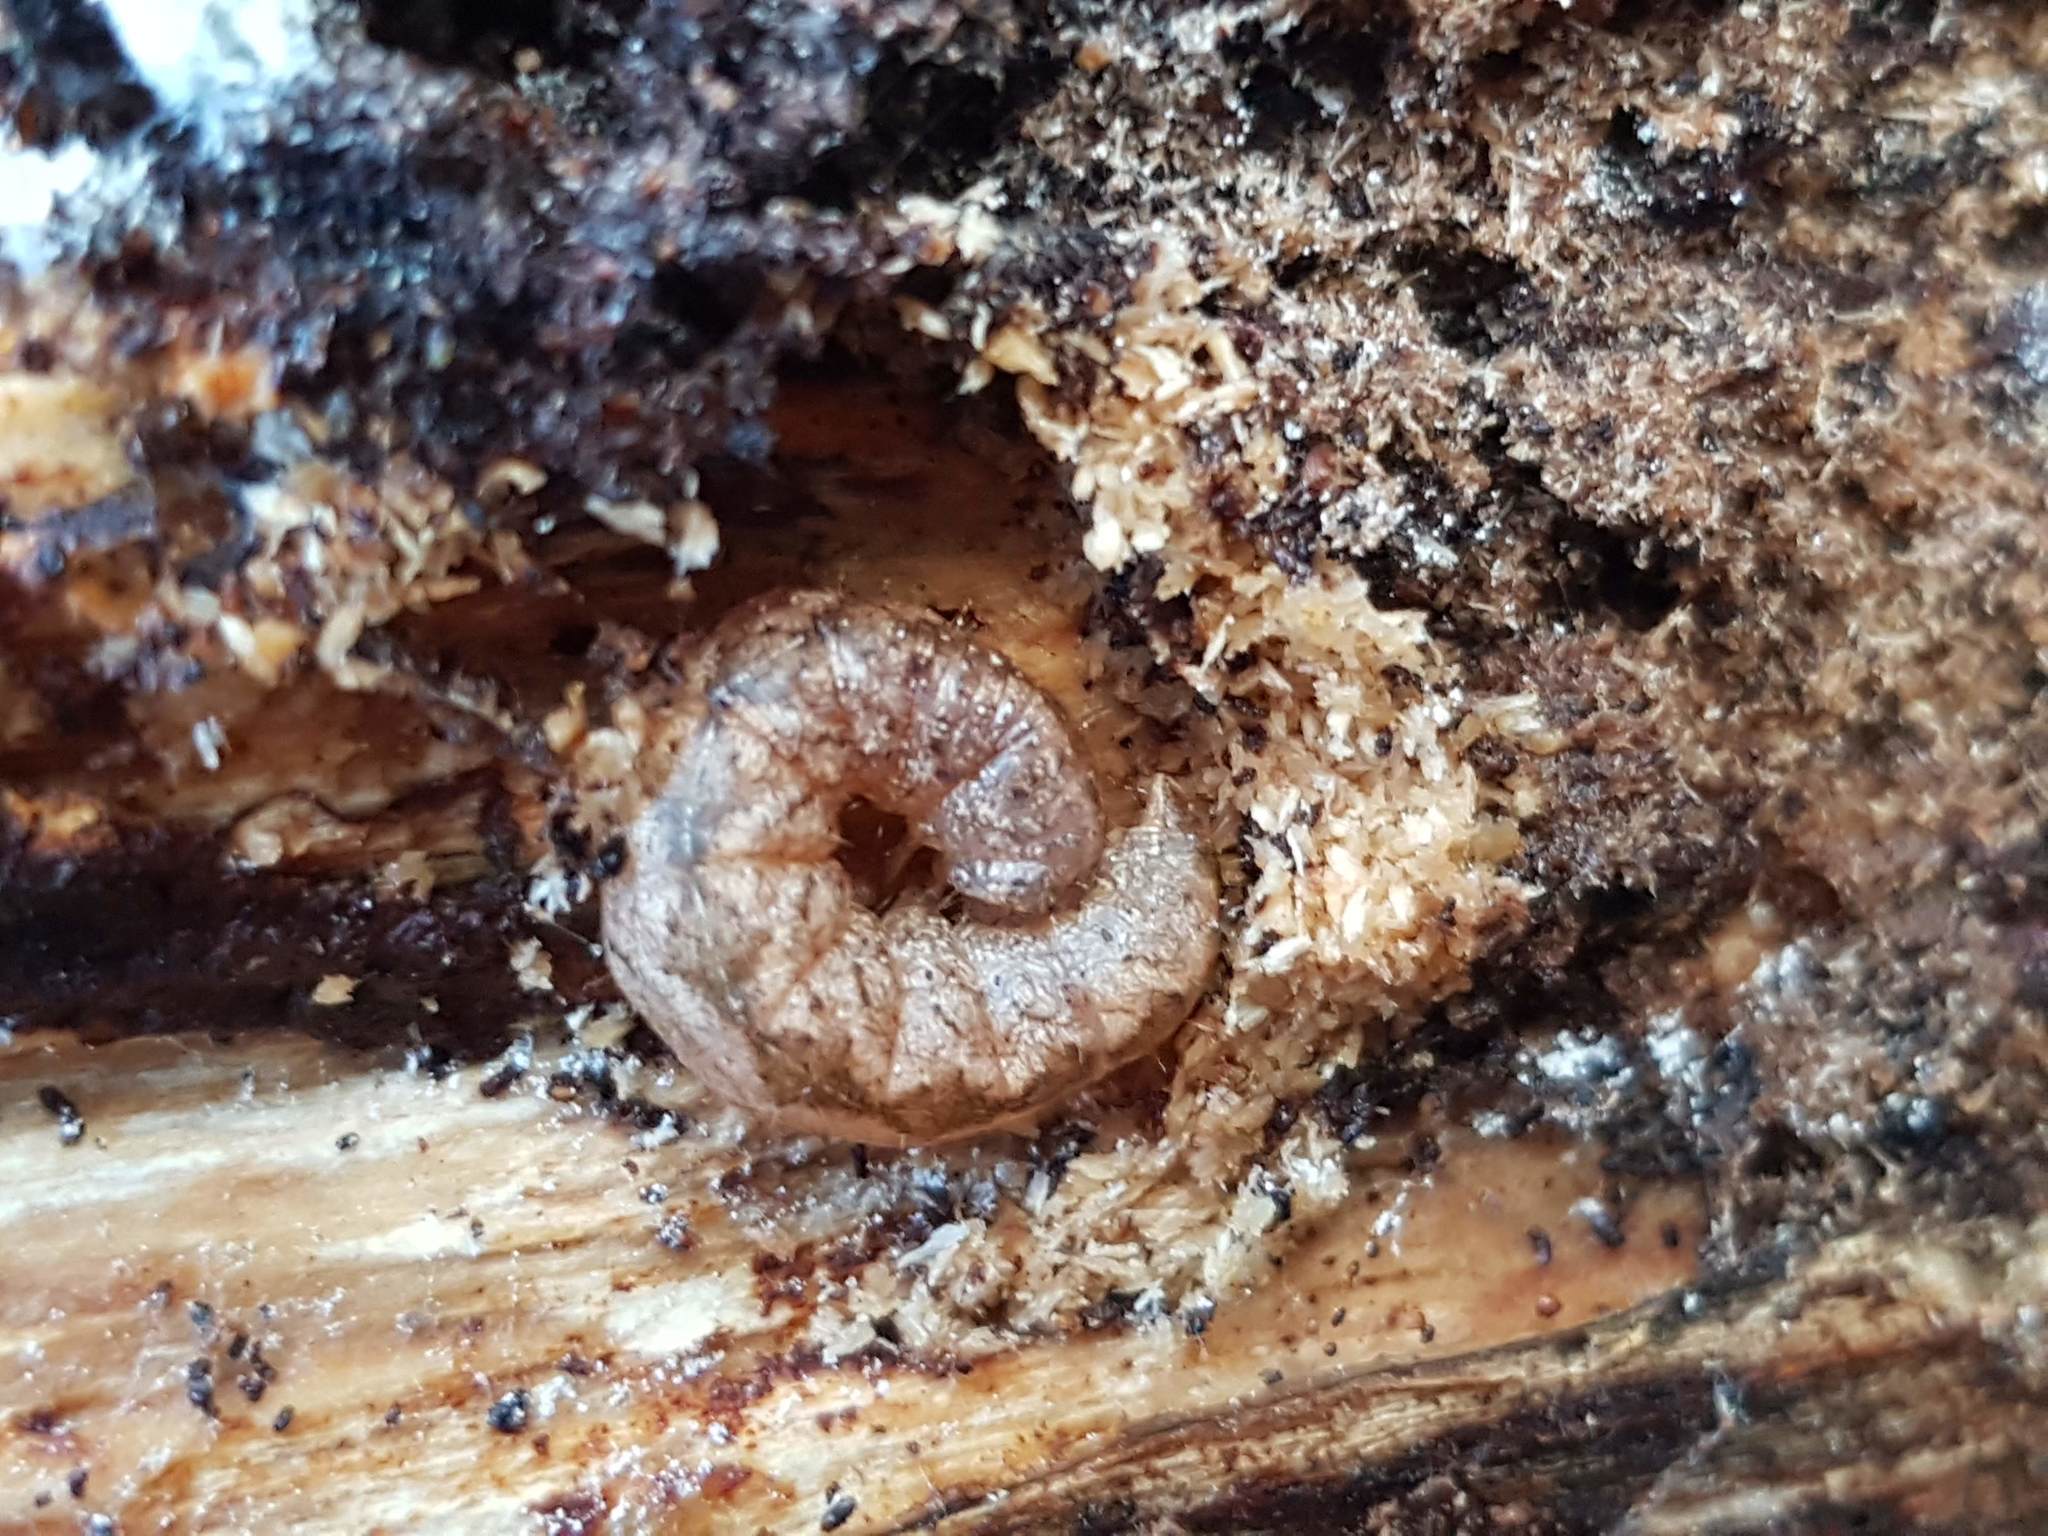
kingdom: Animalia
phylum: Arthropoda
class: Insecta
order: Lepidoptera
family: Noctuidae
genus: Polia
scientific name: Polia nebulosa
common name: Grey arches
